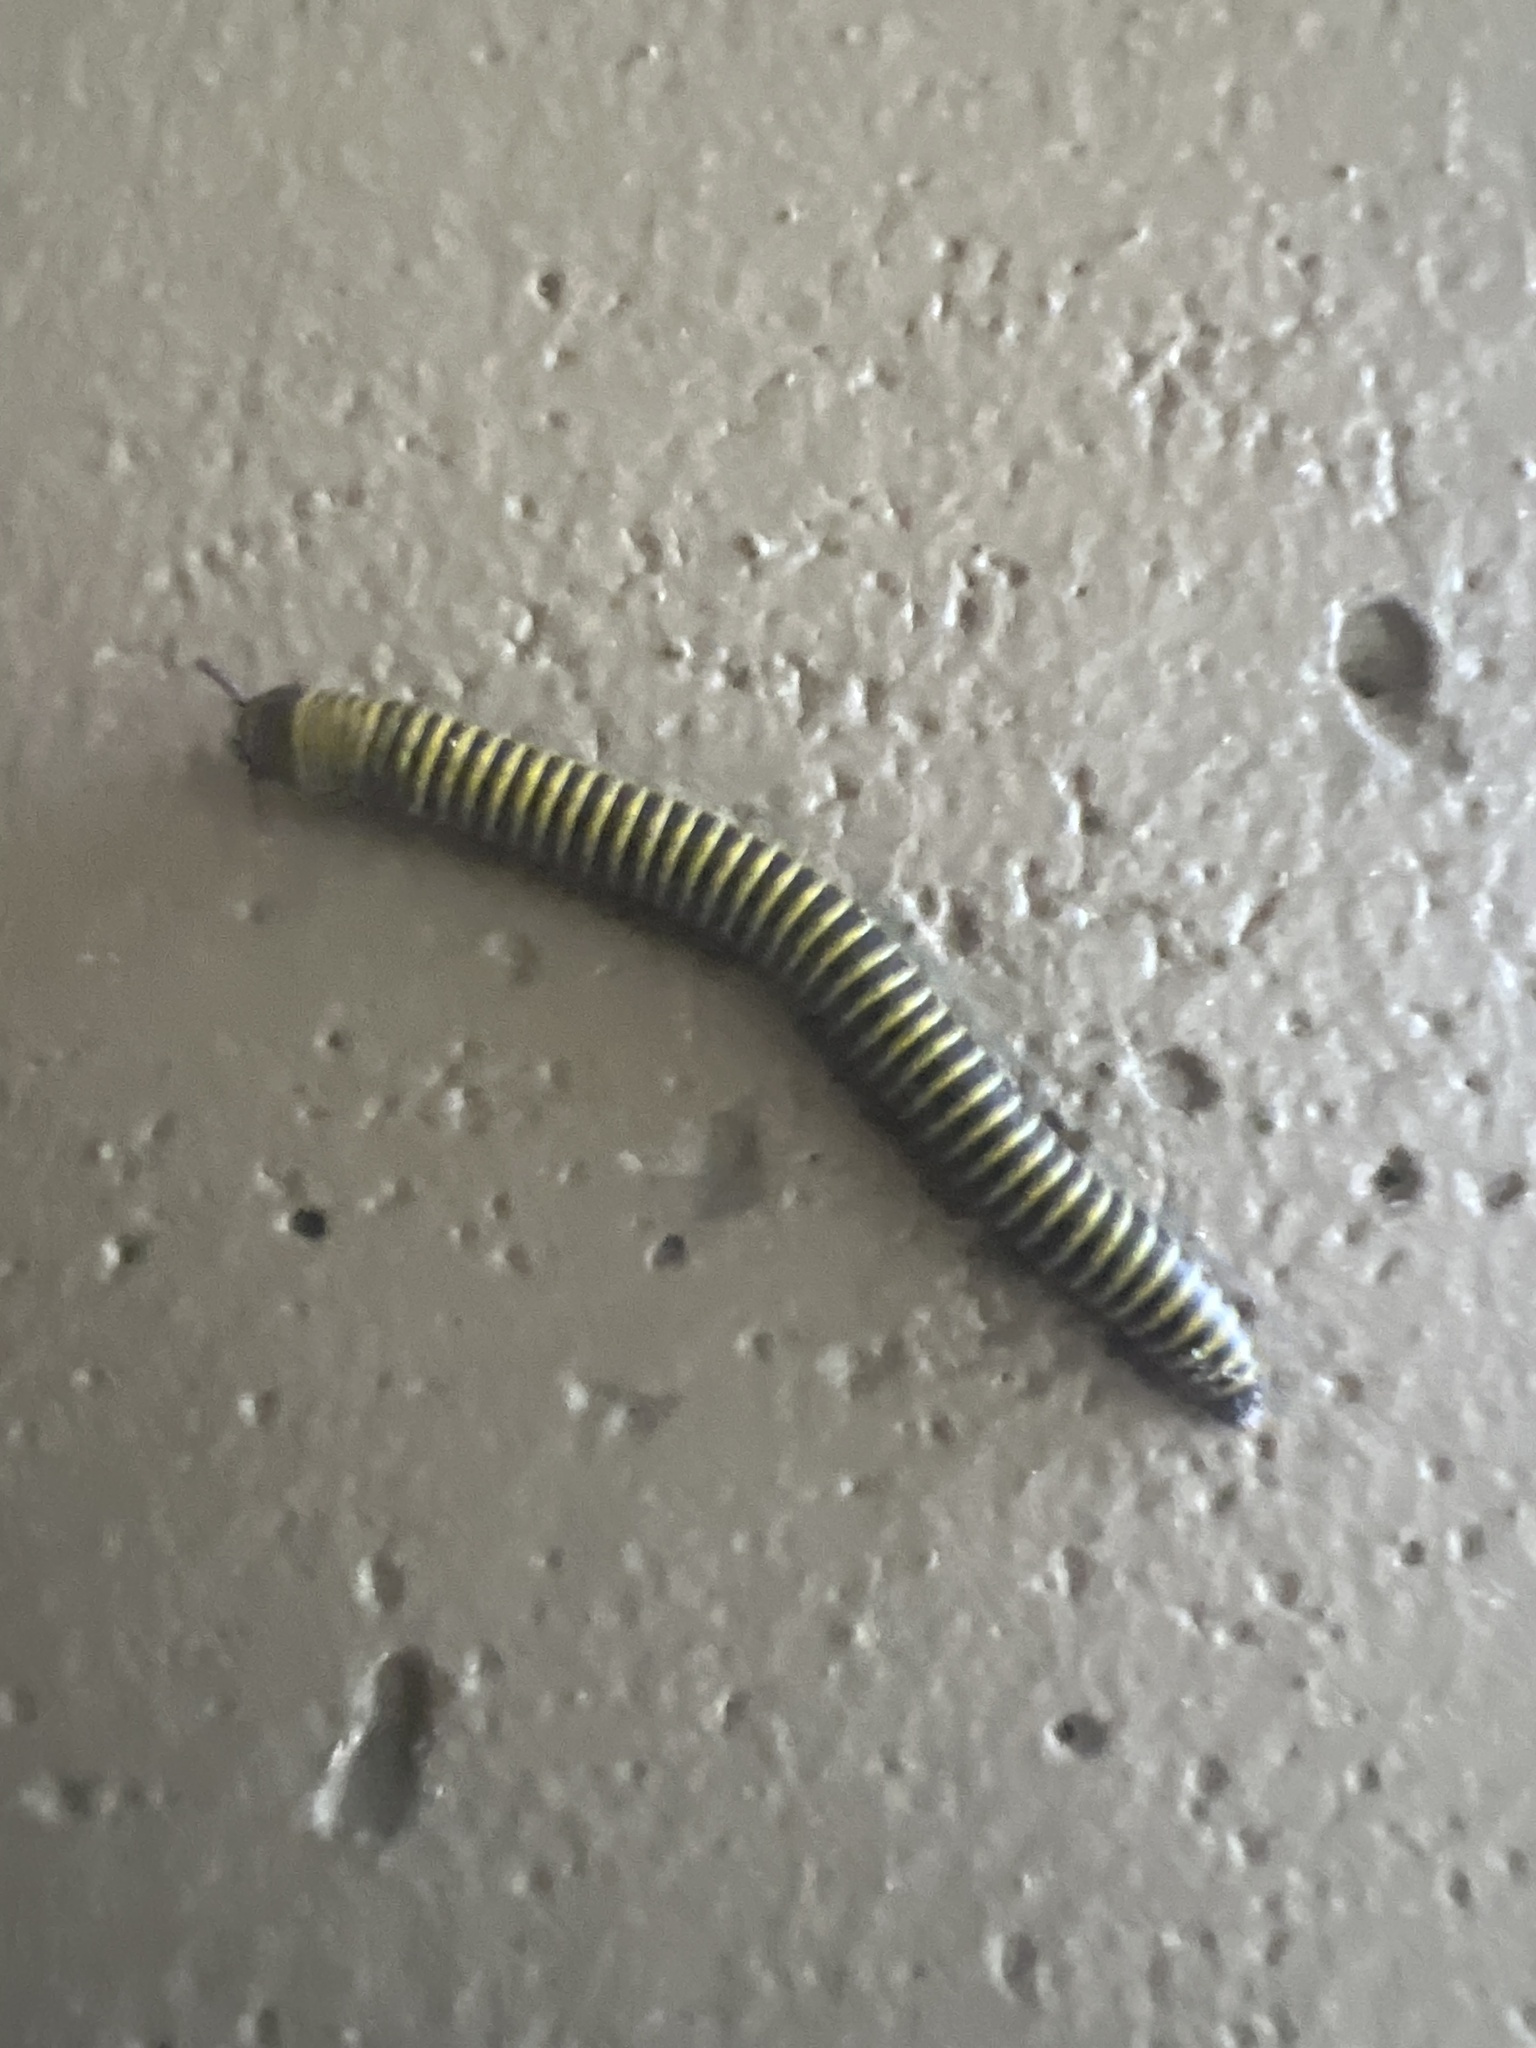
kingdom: Animalia
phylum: Arthropoda
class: Diplopoda
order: Spirobolida
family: Rhinocricidae
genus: Anadenobolus
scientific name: Anadenobolus monilicornis
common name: Caribbean millipede
